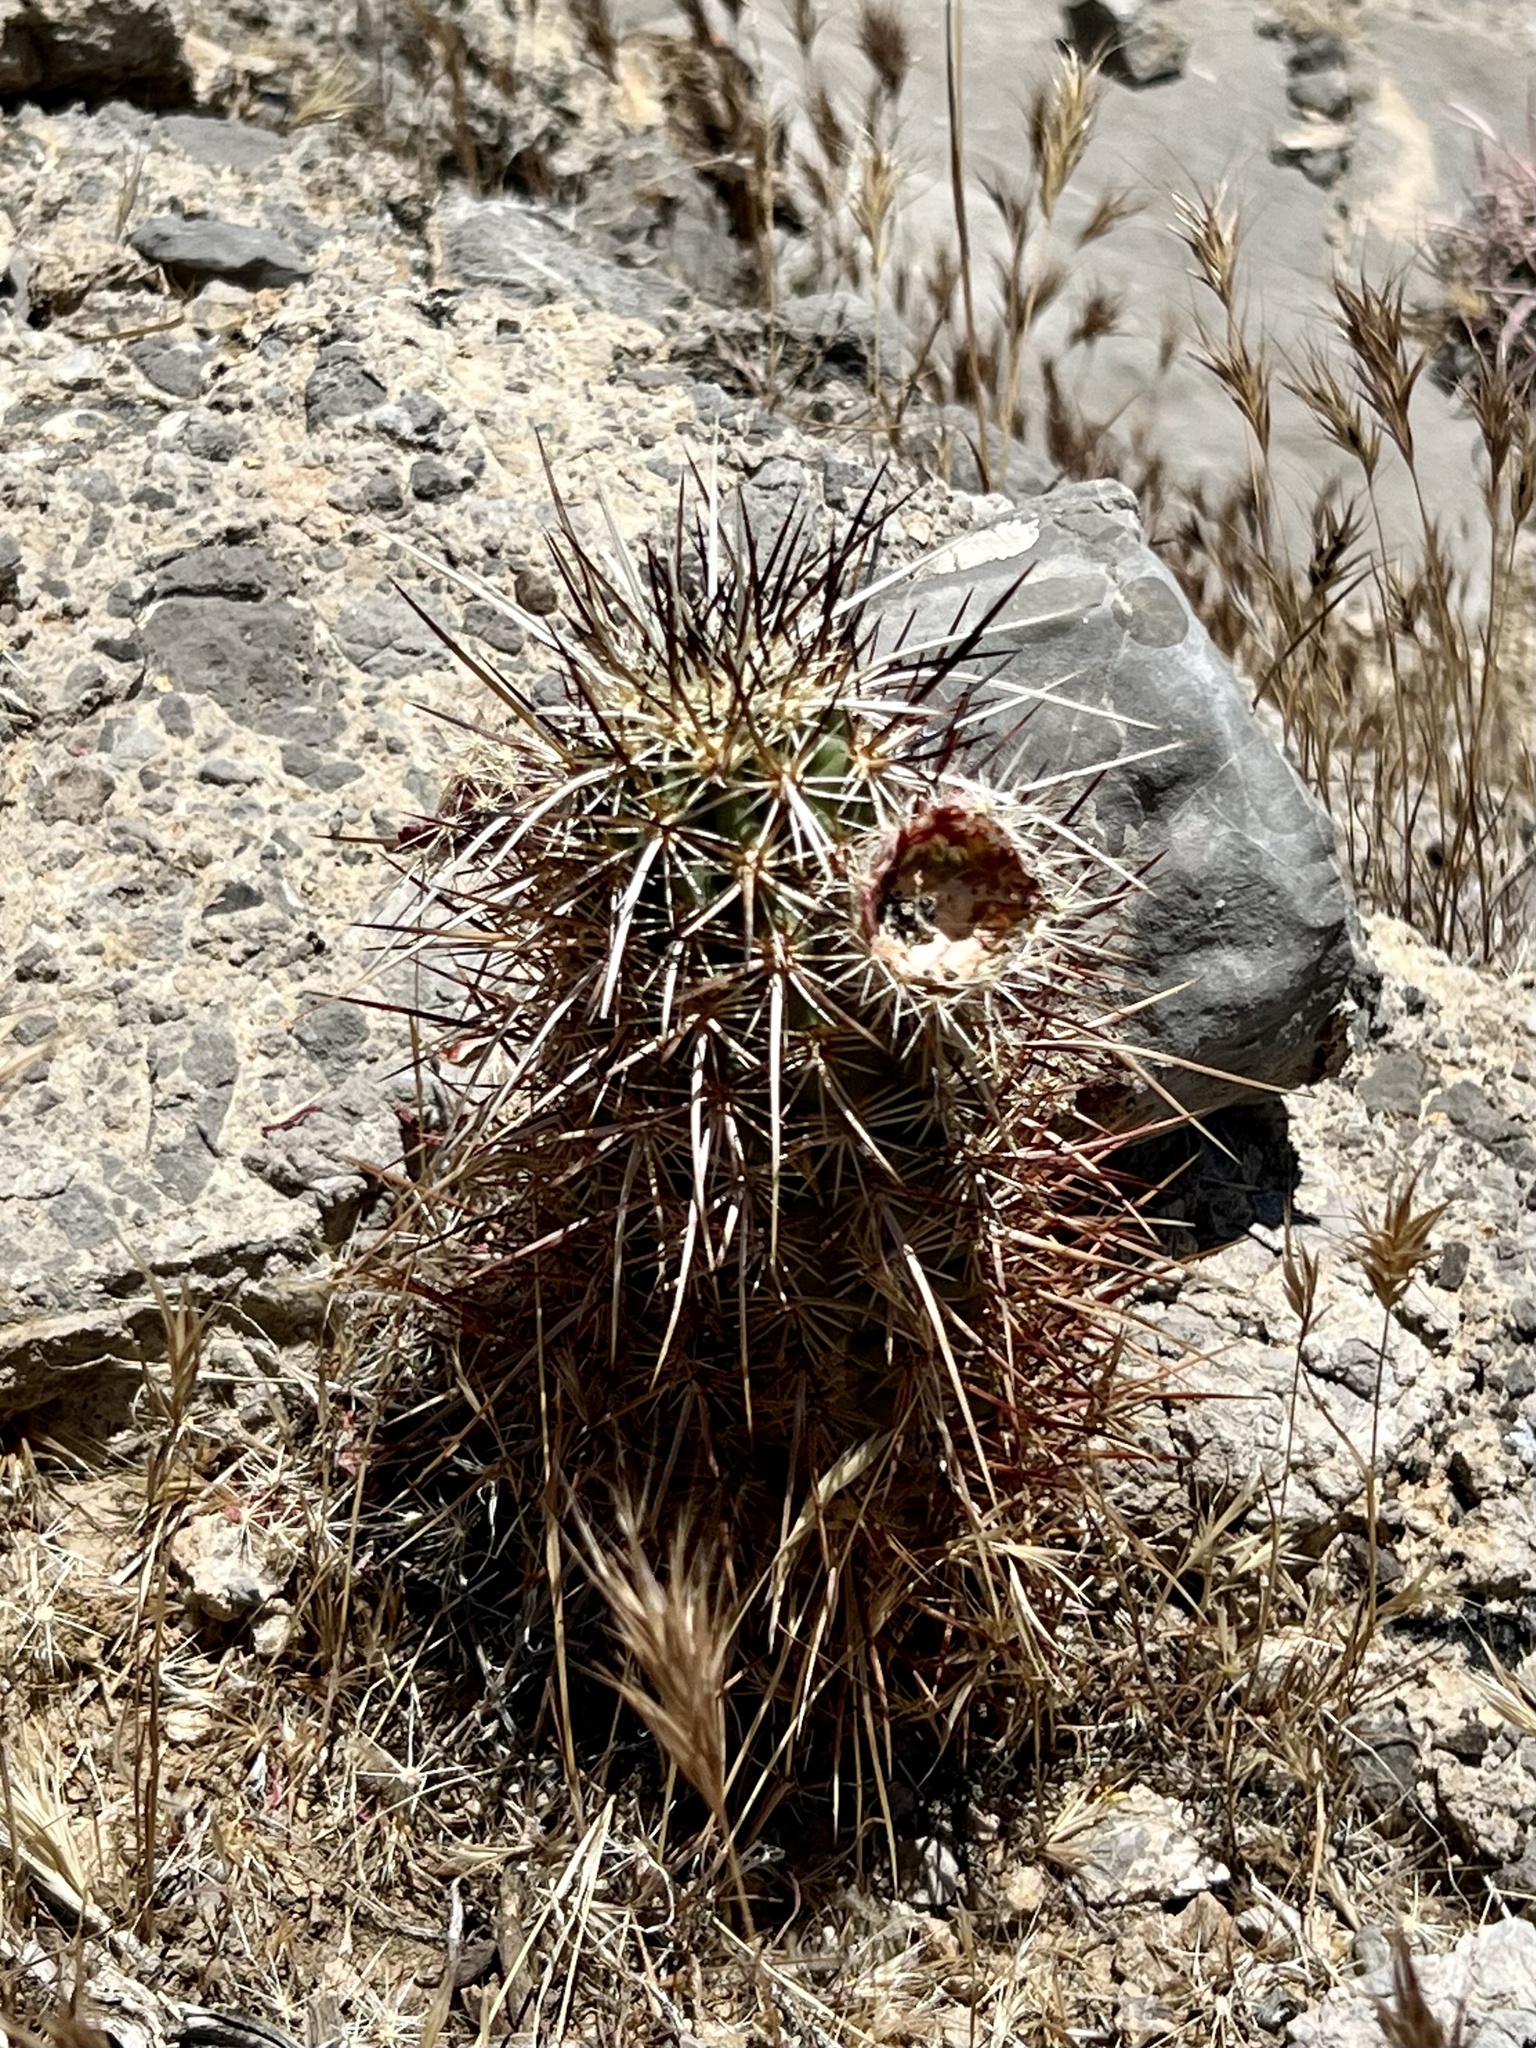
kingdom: Plantae
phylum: Tracheophyta
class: Magnoliopsida
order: Caryophyllales
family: Cactaceae
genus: Echinocereus
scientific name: Echinocereus engelmannii
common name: Engelmann's hedgehog cactus
